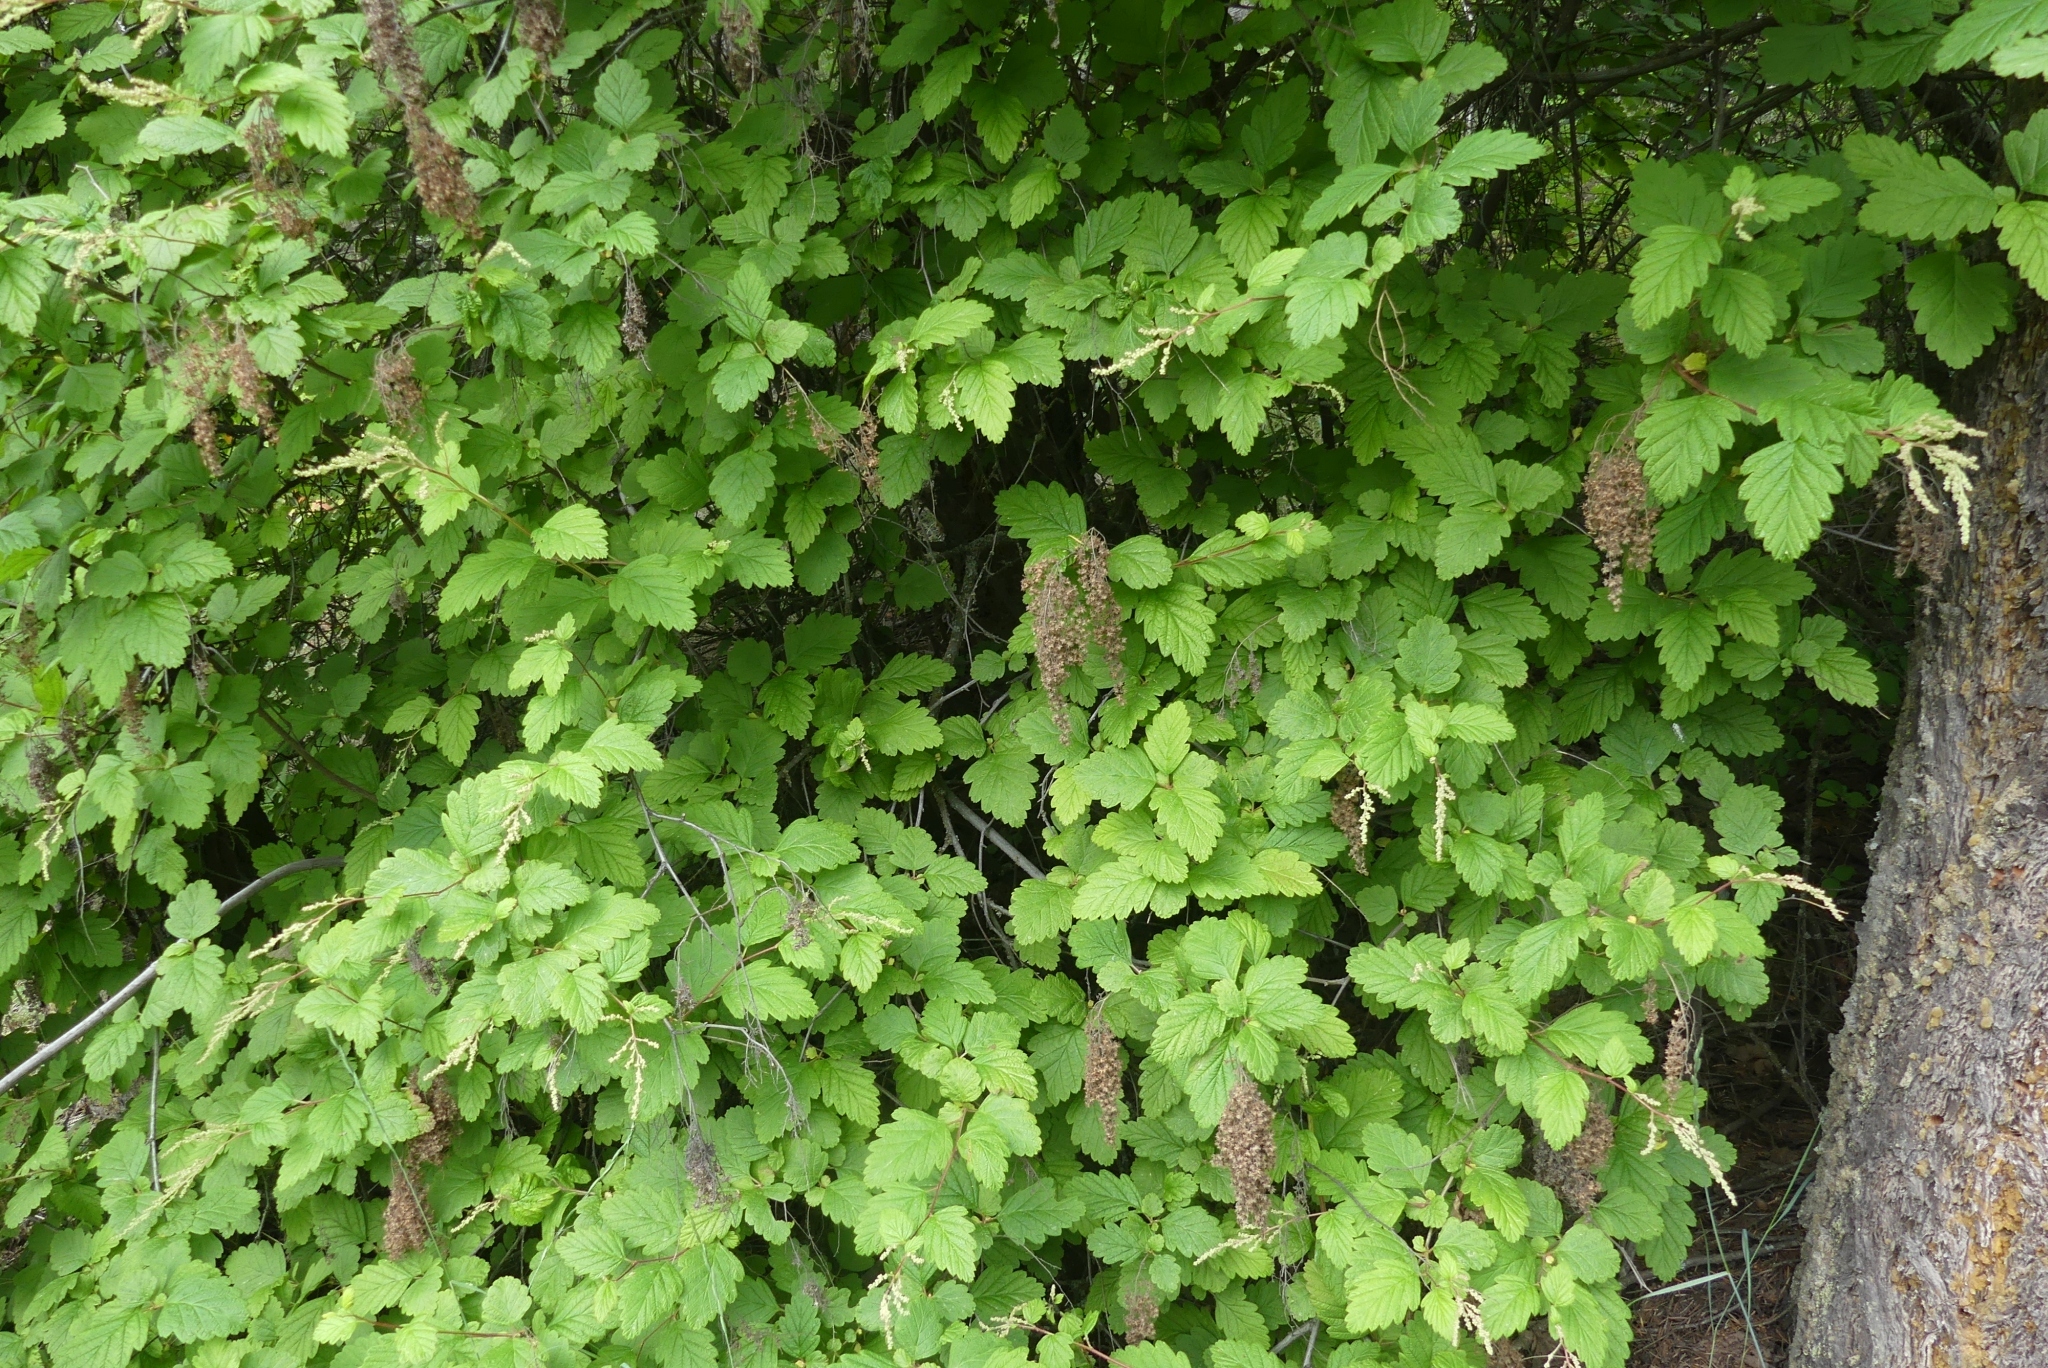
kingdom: Plantae
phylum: Tracheophyta
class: Magnoliopsida
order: Rosales
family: Rosaceae
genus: Holodiscus
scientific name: Holodiscus discolor
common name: Oceanspray
